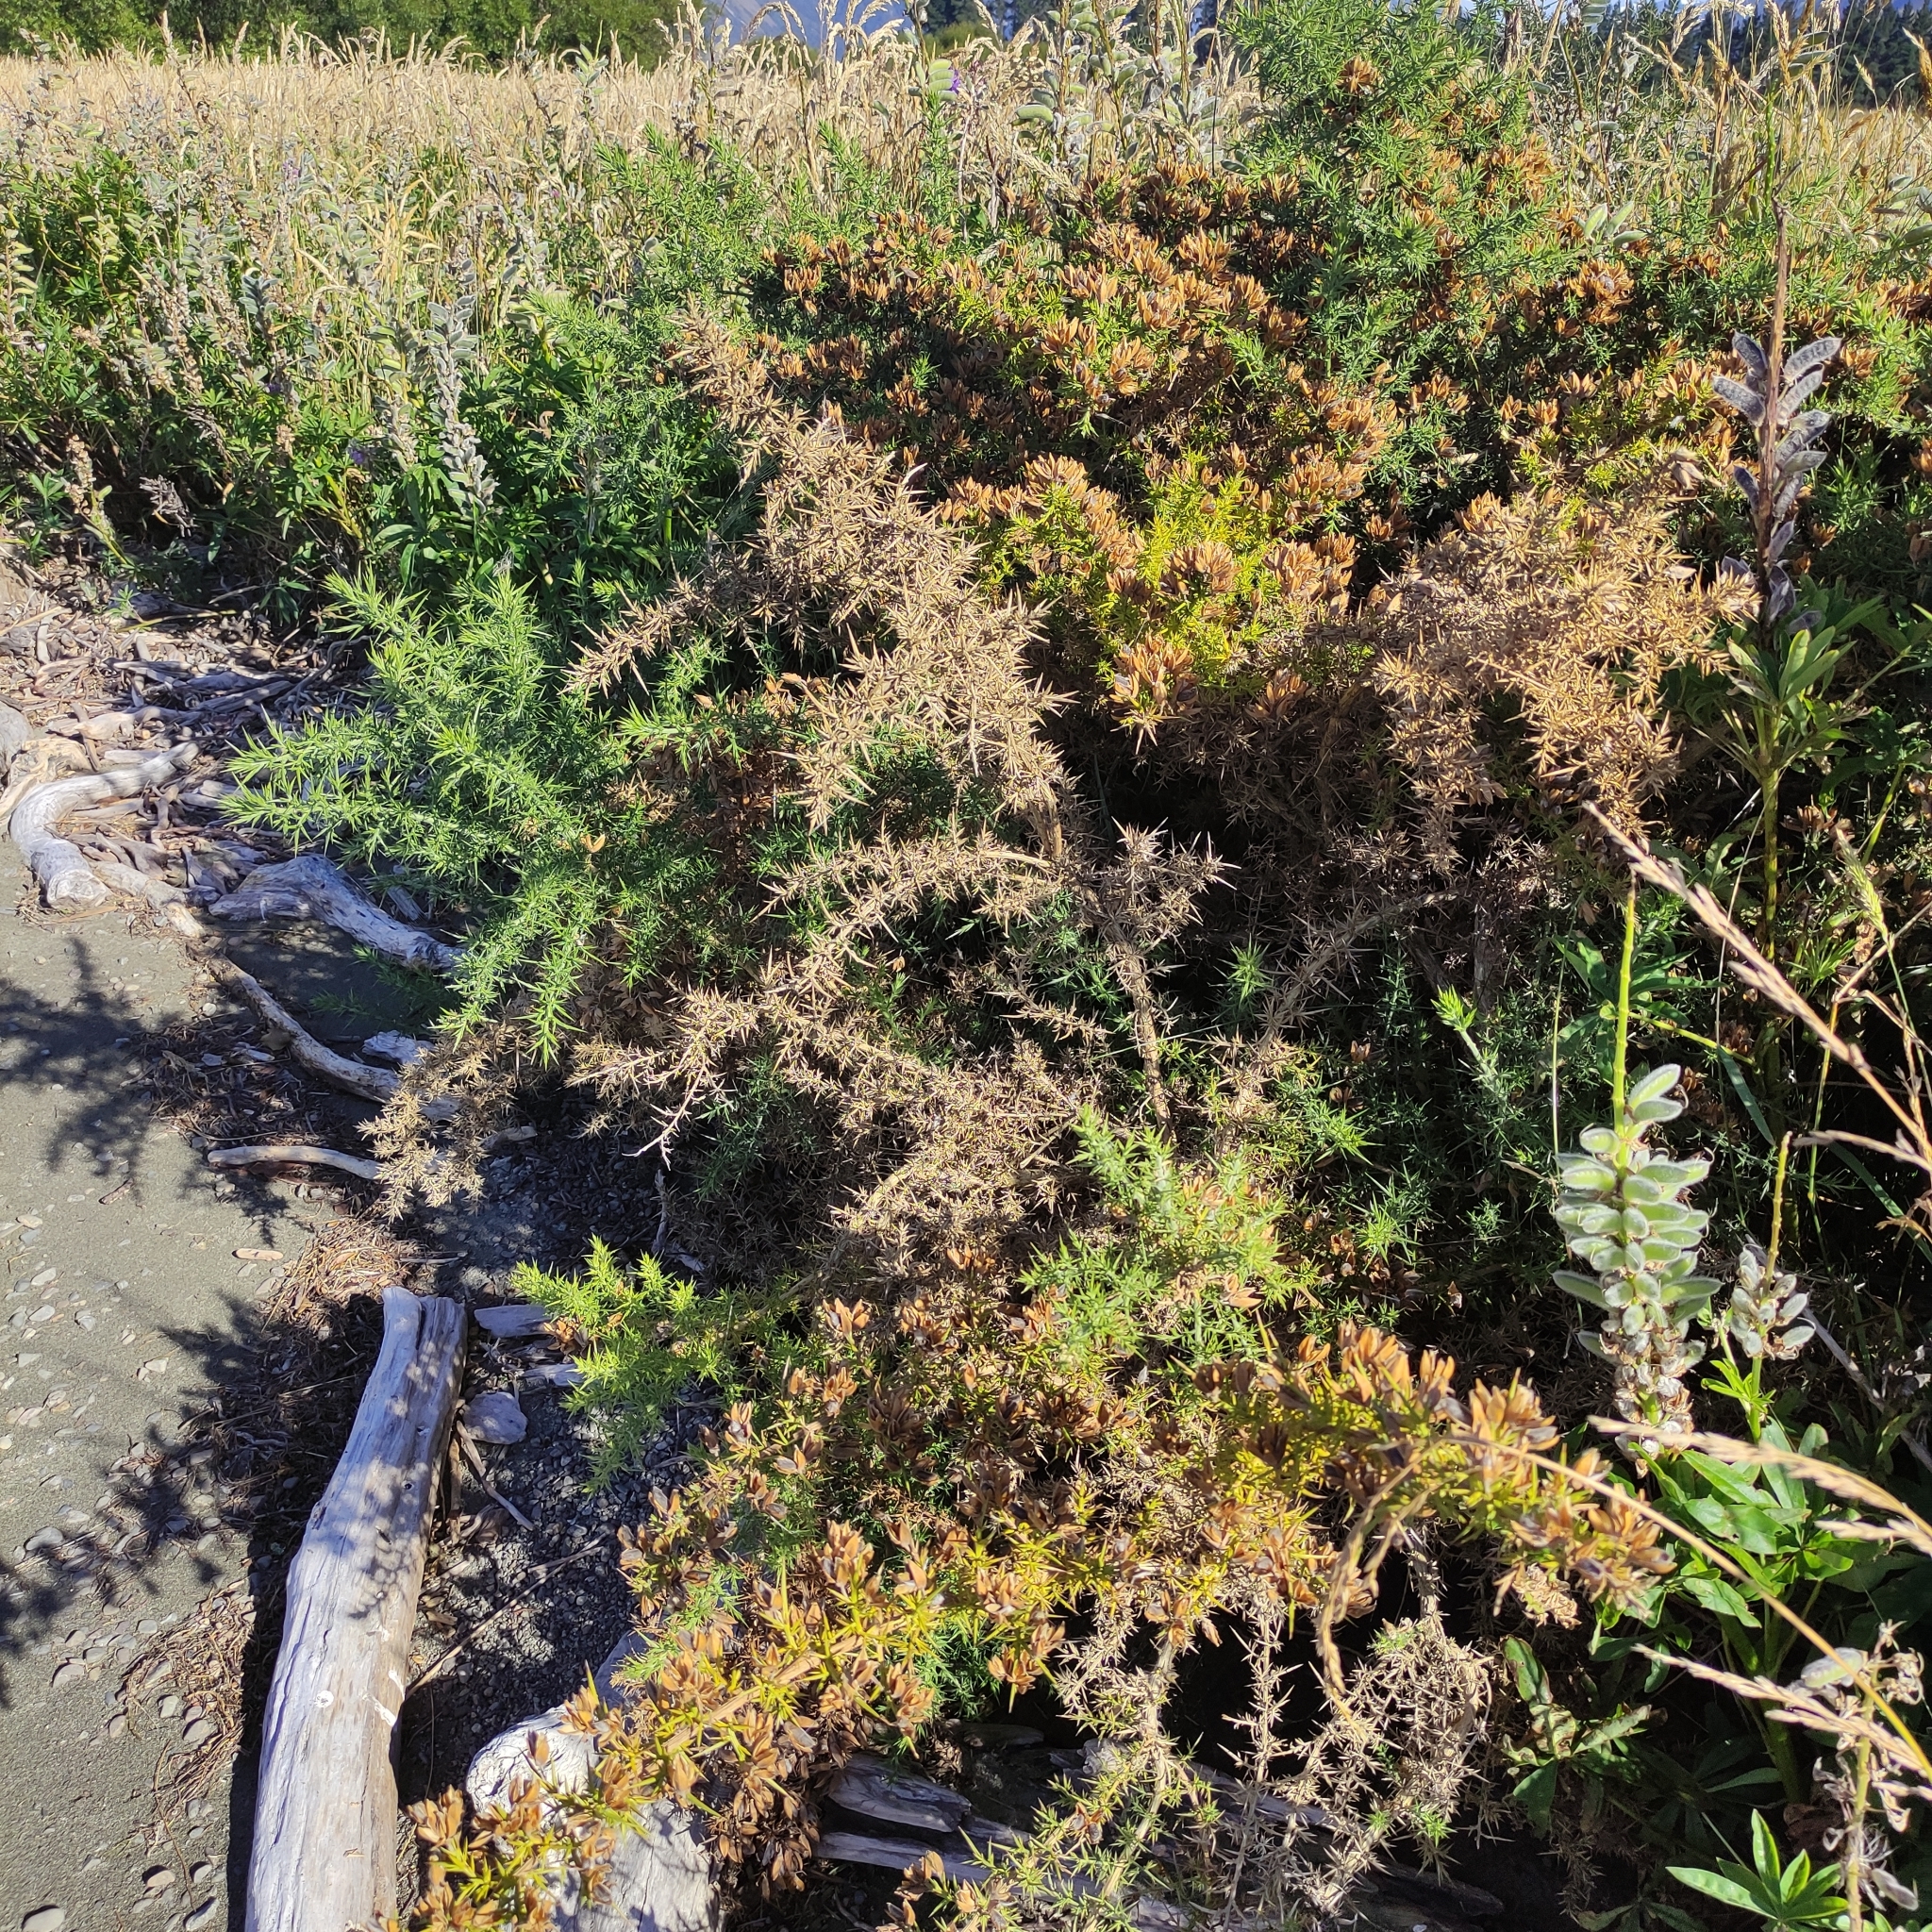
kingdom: Plantae
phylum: Tracheophyta
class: Magnoliopsida
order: Fabales
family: Fabaceae
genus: Ulex
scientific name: Ulex europaeus
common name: Common gorse
